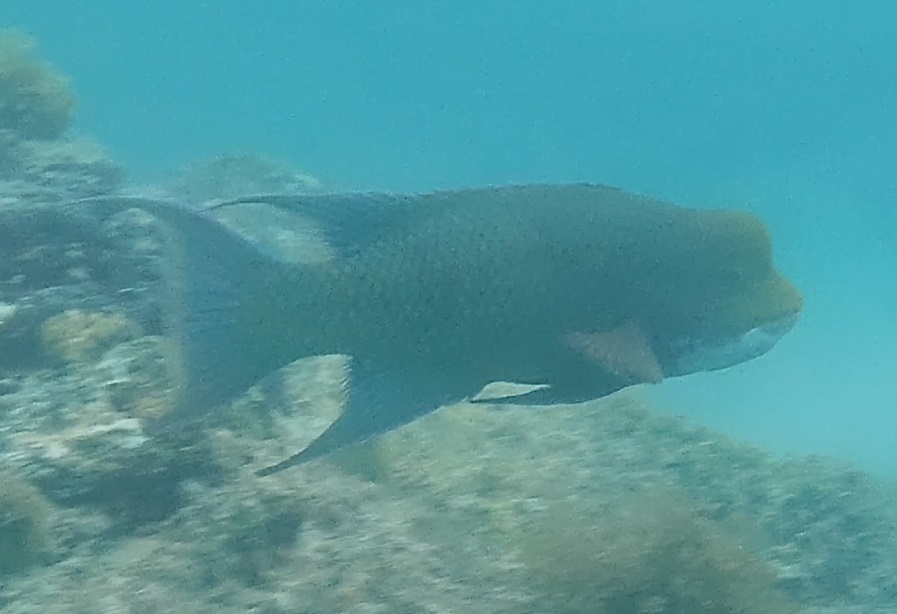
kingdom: Animalia
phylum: Chordata
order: Perciformes
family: Labridae
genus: Bodianus
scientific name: Bodianus diplotaenia
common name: Mexican hogfish
